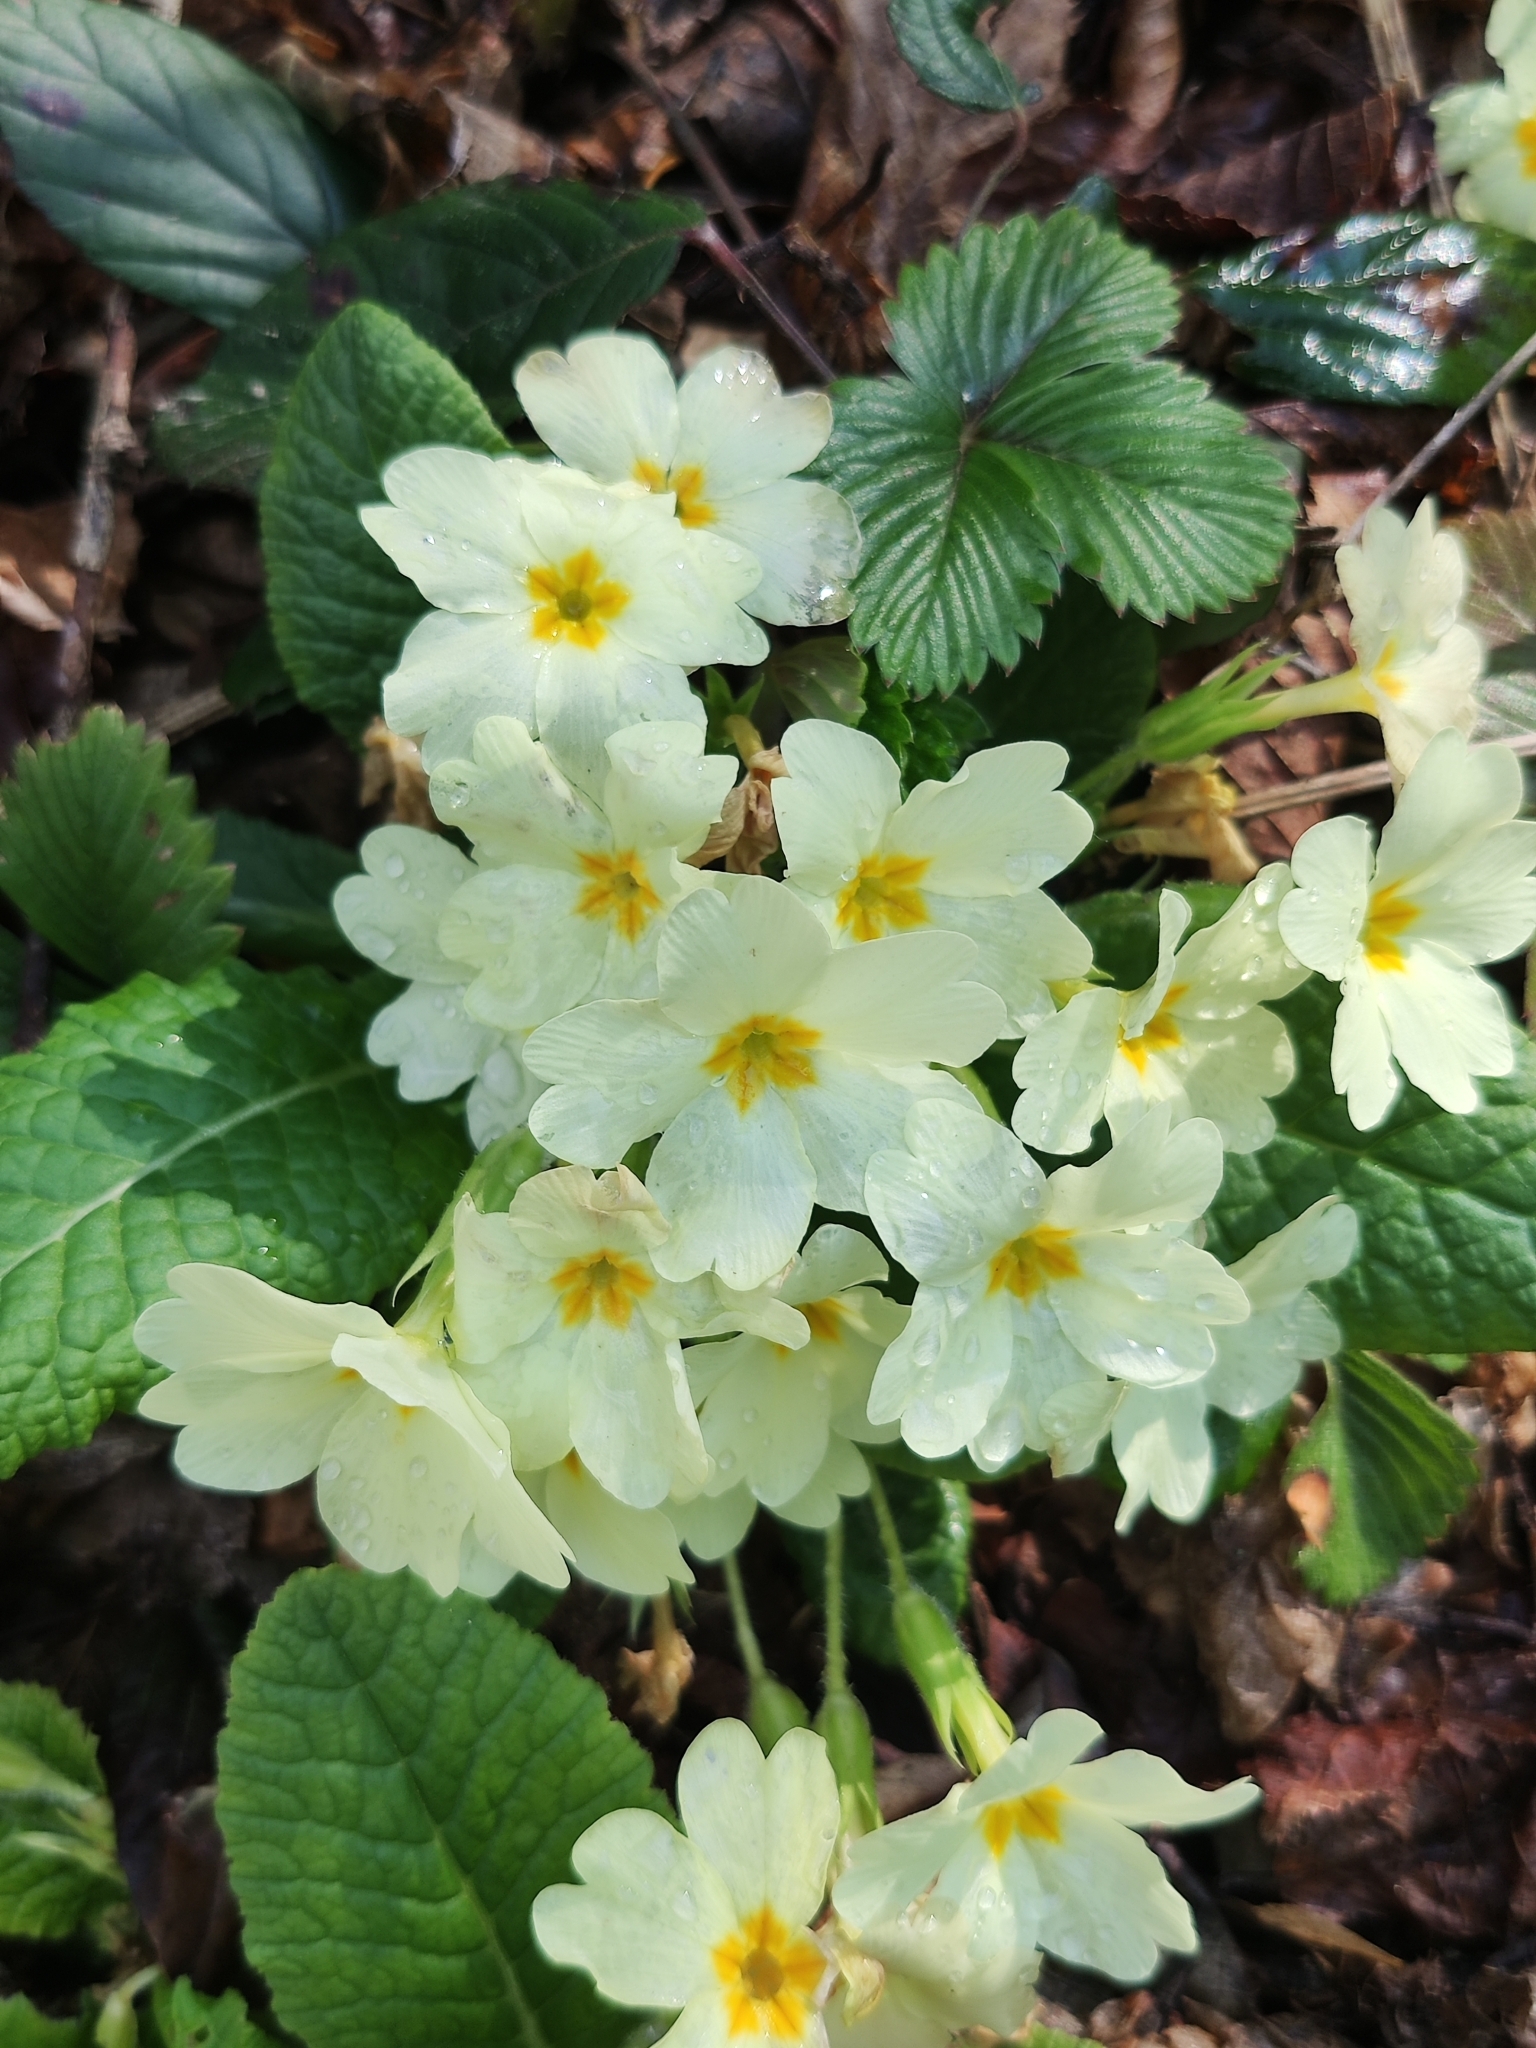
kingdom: Plantae
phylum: Tracheophyta
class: Magnoliopsida
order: Ericales
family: Primulaceae
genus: Primula
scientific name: Primula vulgaris
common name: Primrose
